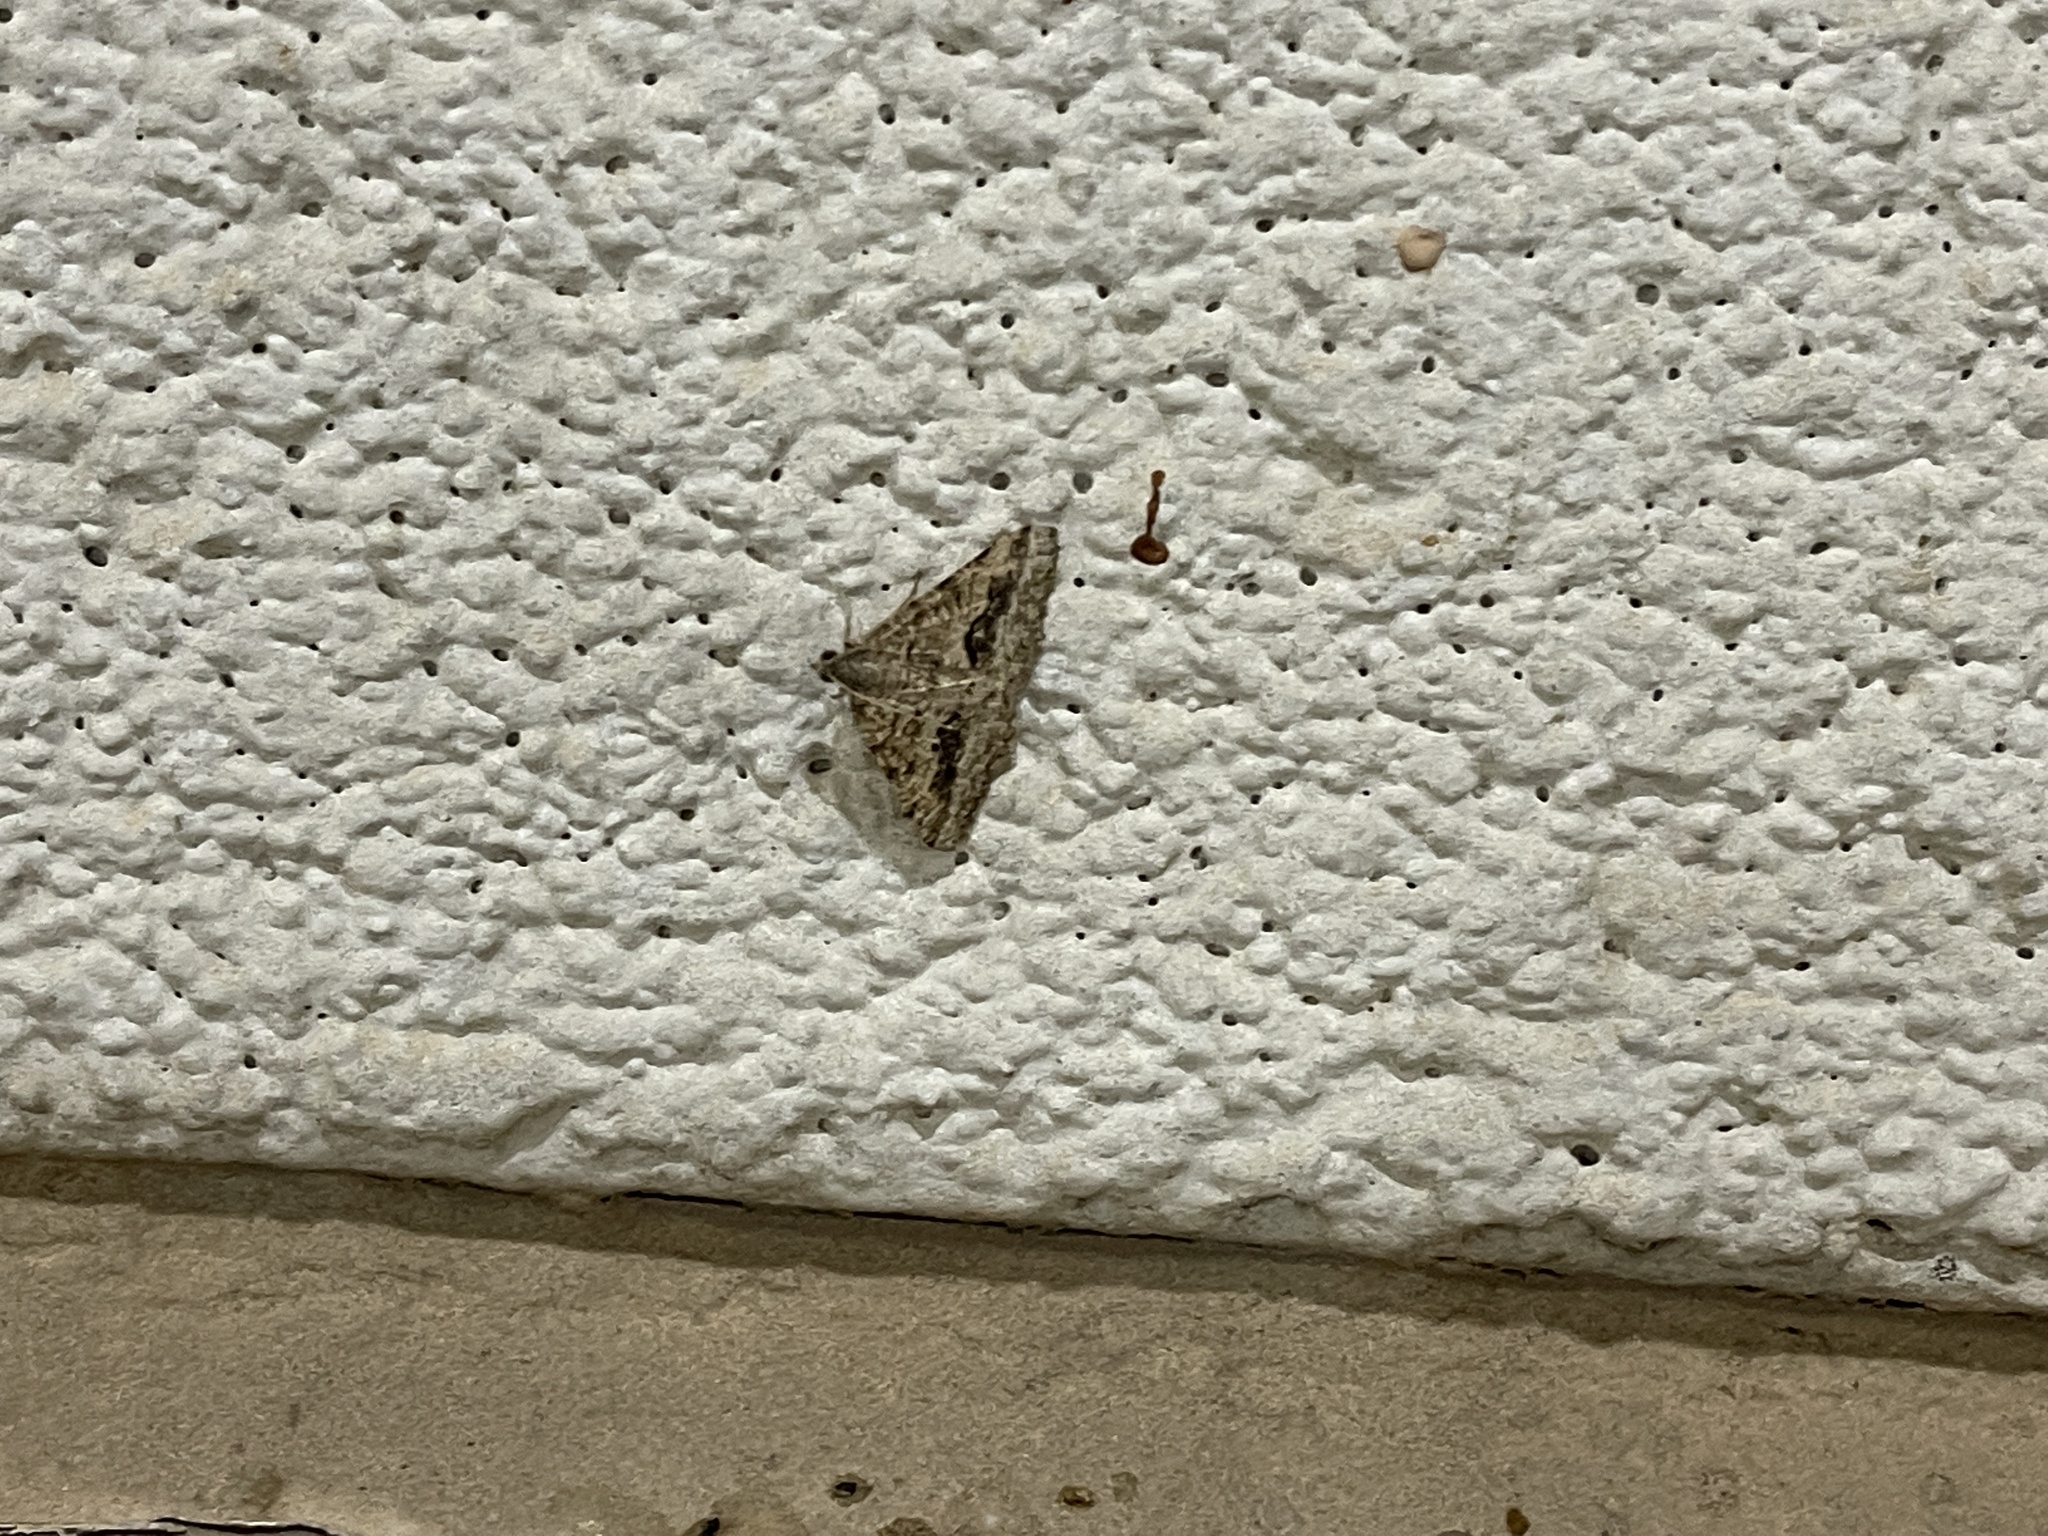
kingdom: Animalia
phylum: Arthropoda
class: Insecta
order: Lepidoptera
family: Geometridae
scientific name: Geometridae
